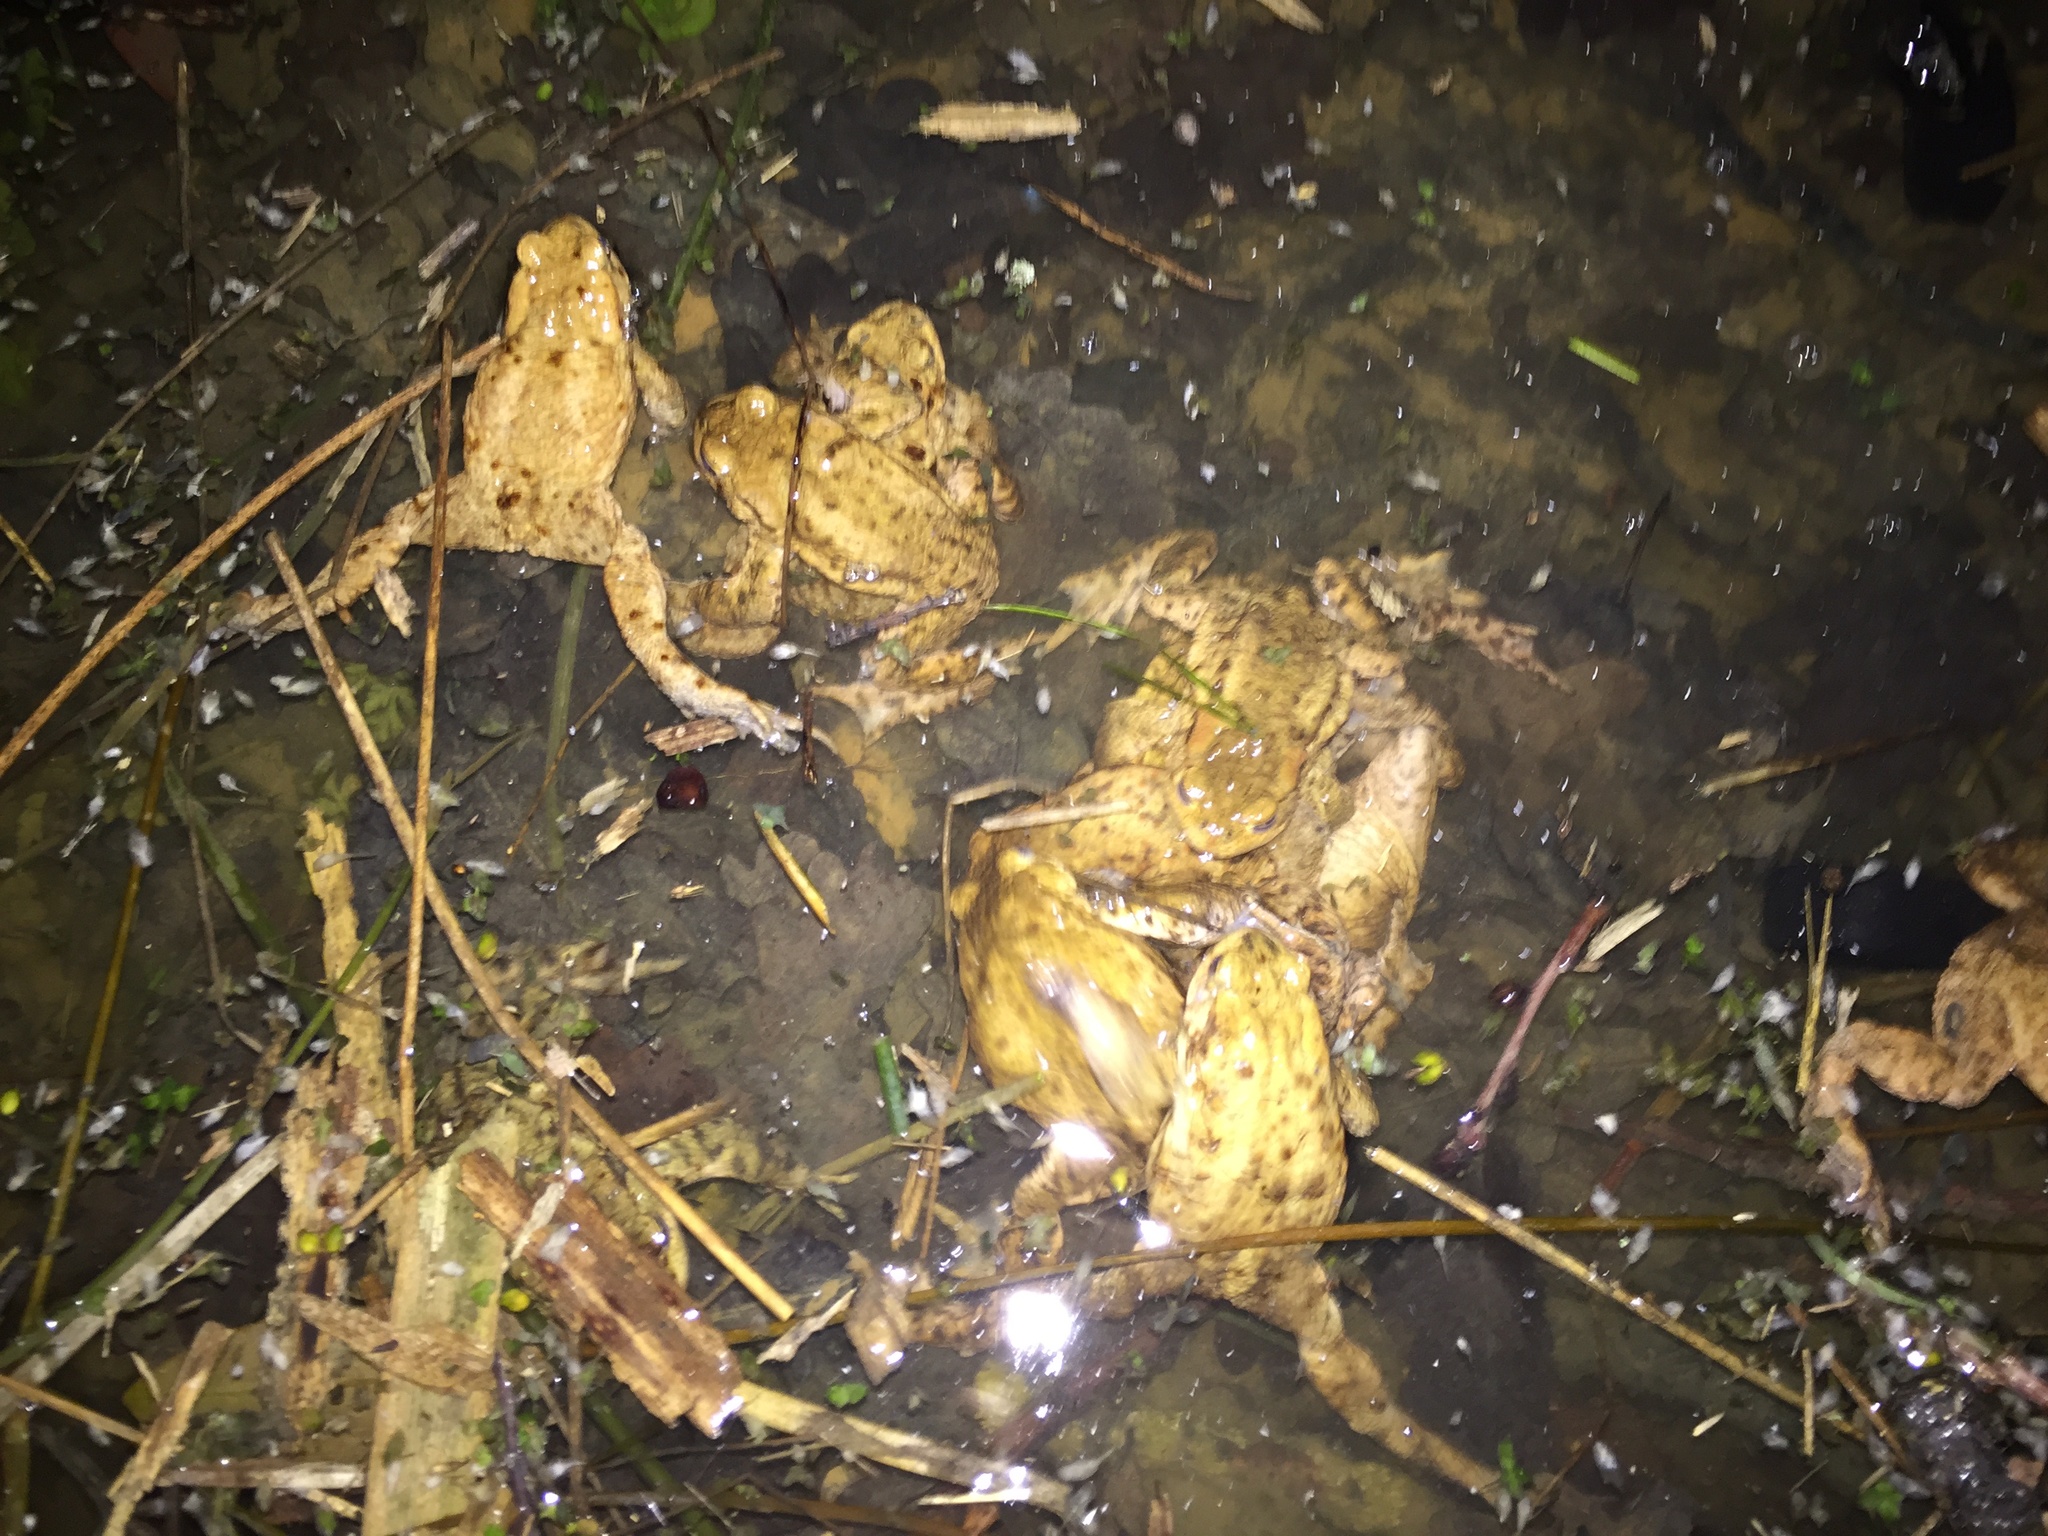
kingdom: Animalia
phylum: Chordata
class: Amphibia
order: Anura
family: Bufonidae
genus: Bufo
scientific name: Bufo bufo
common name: Common toad
